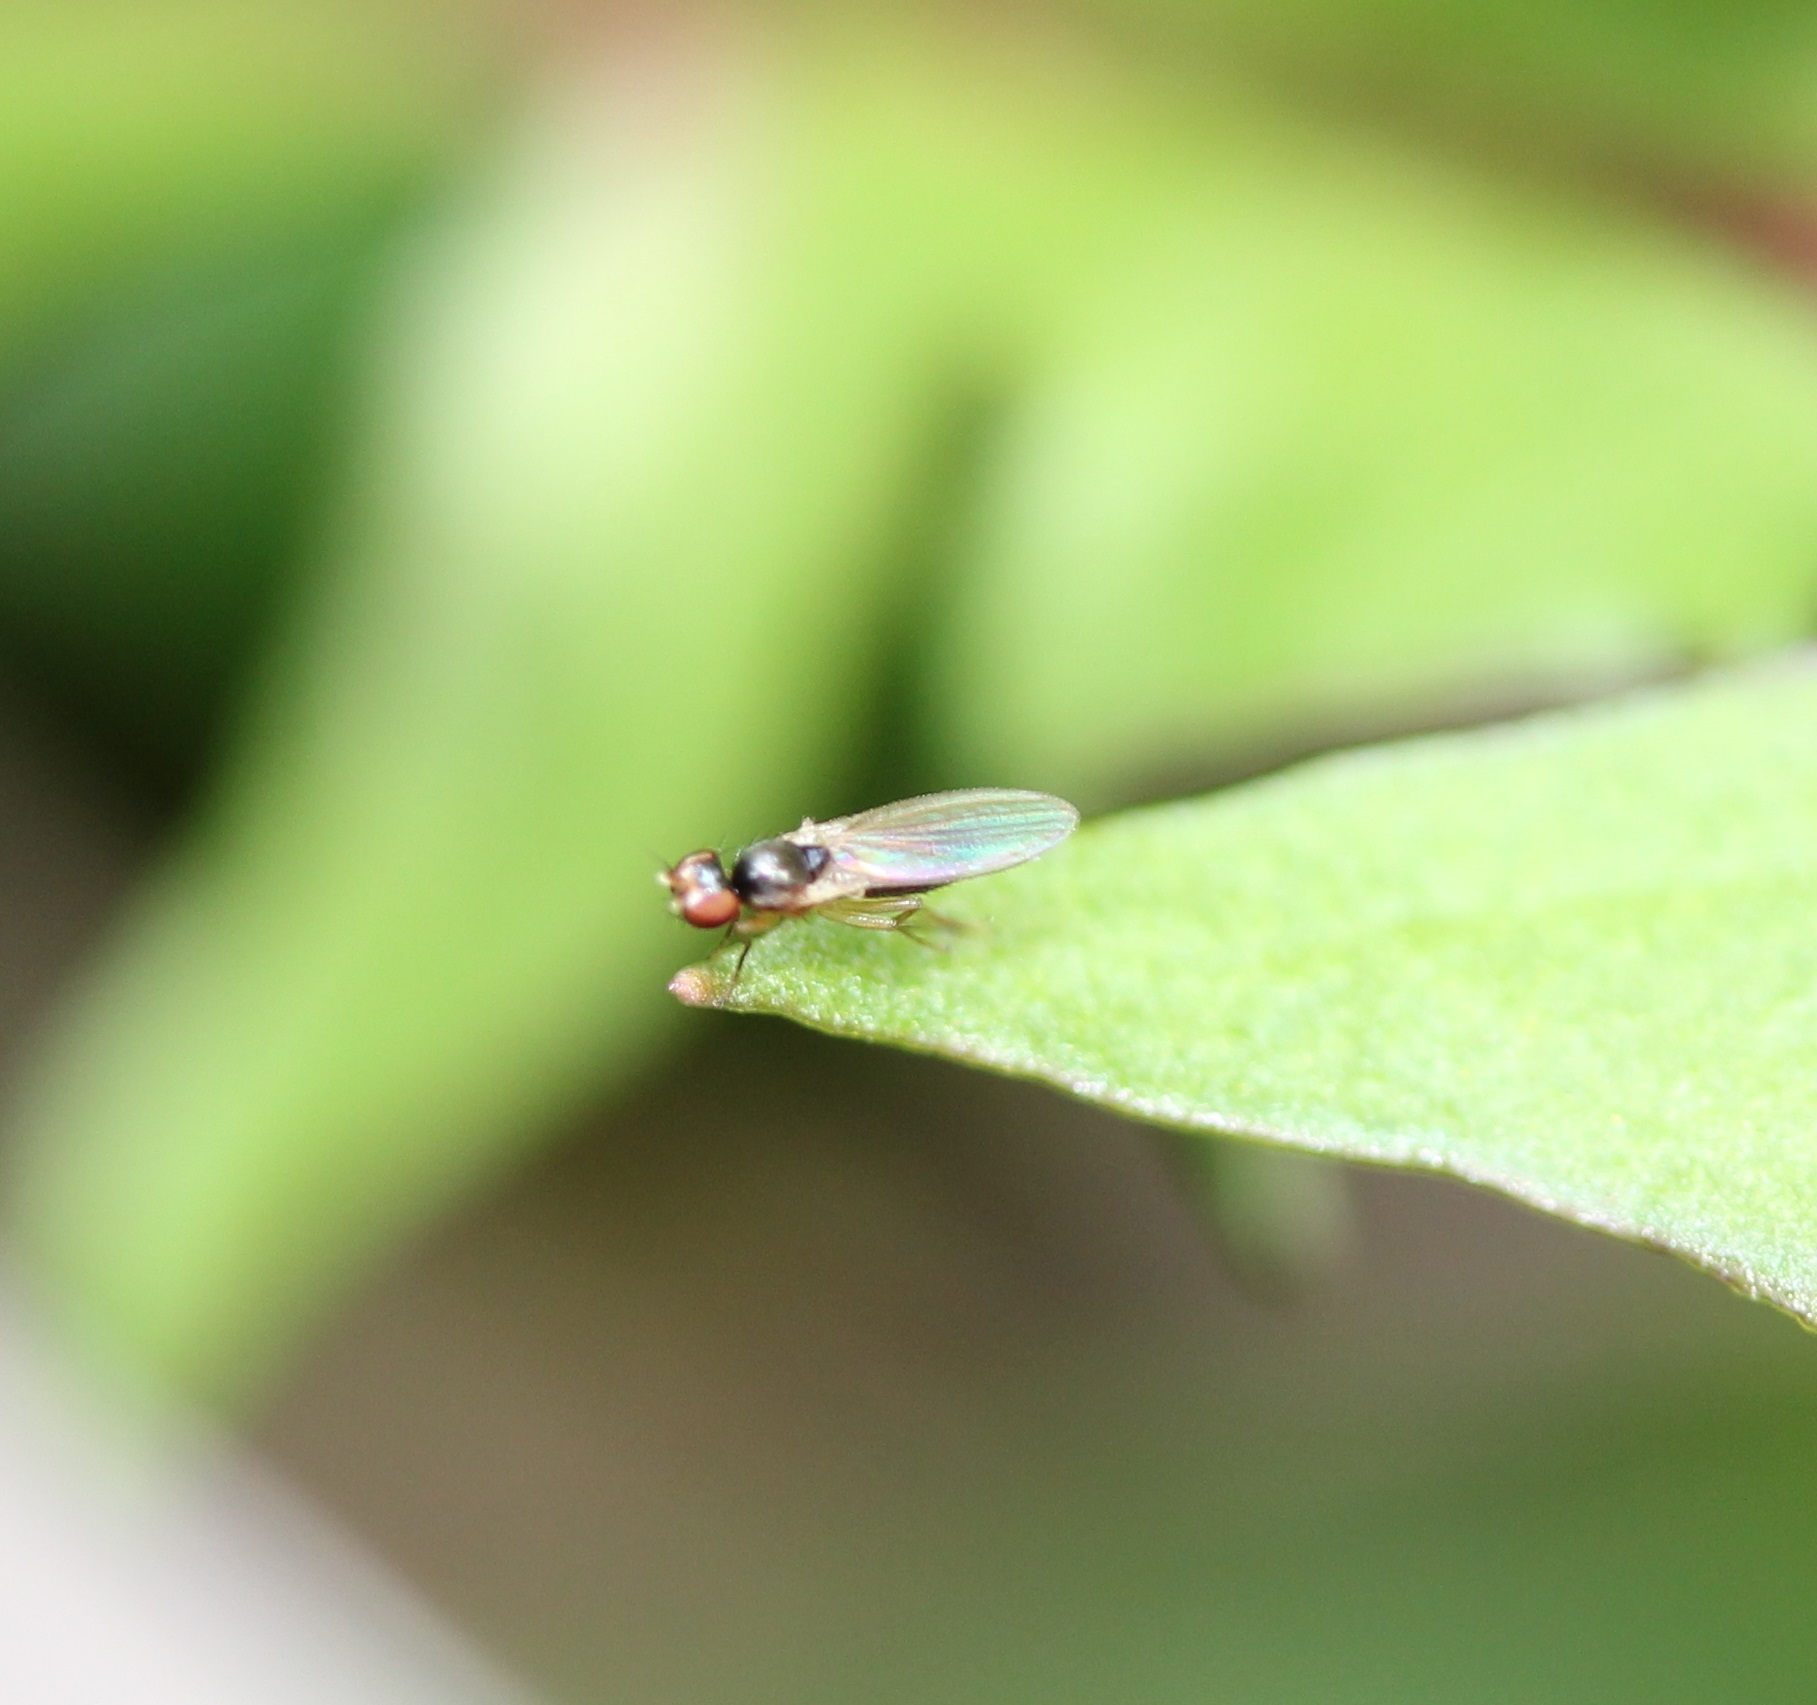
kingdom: Animalia
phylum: Arthropoda
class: Insecta
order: Diptera
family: Anthomyzidae
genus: Mumetopia
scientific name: Mumetopia occipitalis
